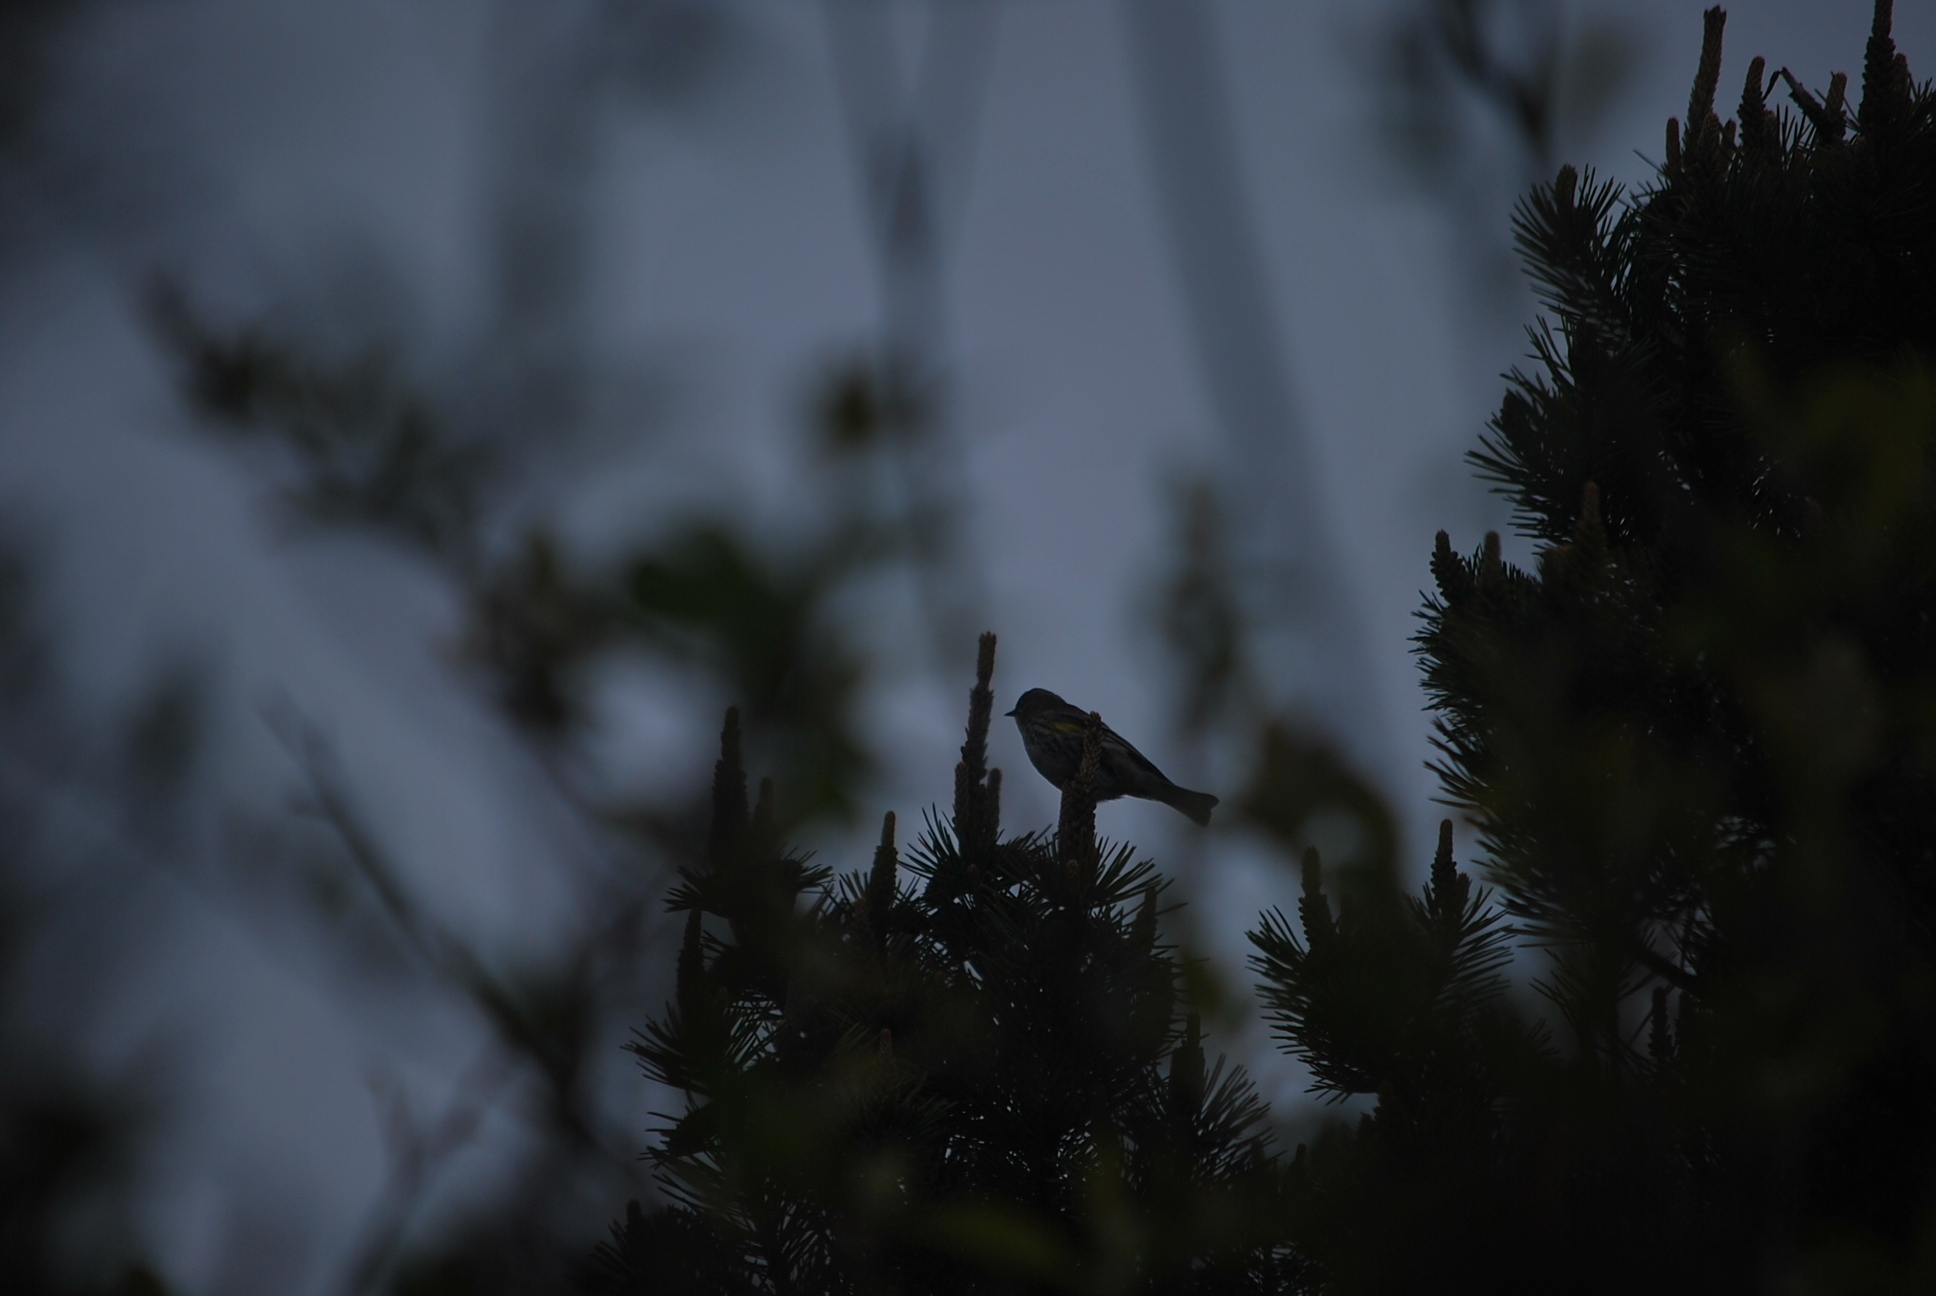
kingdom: Animalia
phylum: Chordata
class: Aves
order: Passeriformes
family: Parulidae
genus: Setophaga
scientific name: Setophaga coronata
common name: Myrtle warbler
